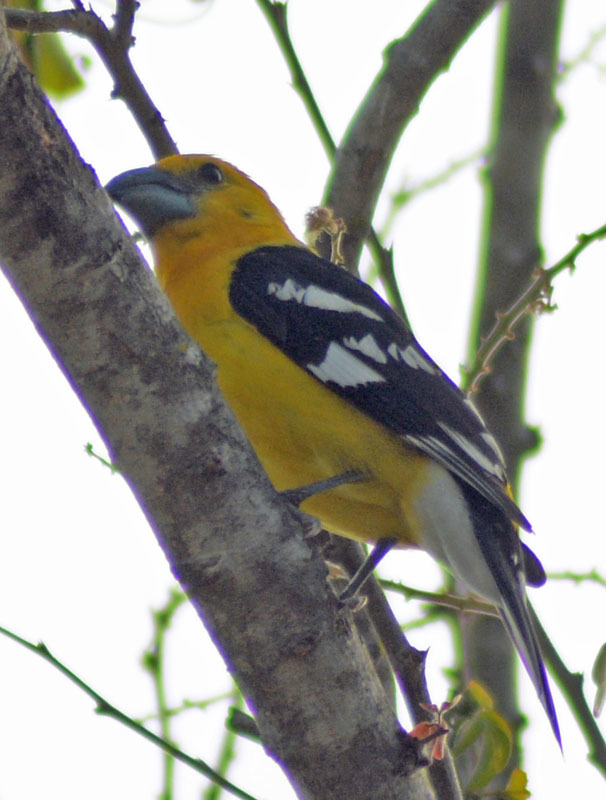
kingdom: Animalia
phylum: Chordata
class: Aves
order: Passeriformes
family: Cardinalidae
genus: Pheucticus
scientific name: Pheucticus chrysopeplus
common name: Yellow grosbeak
